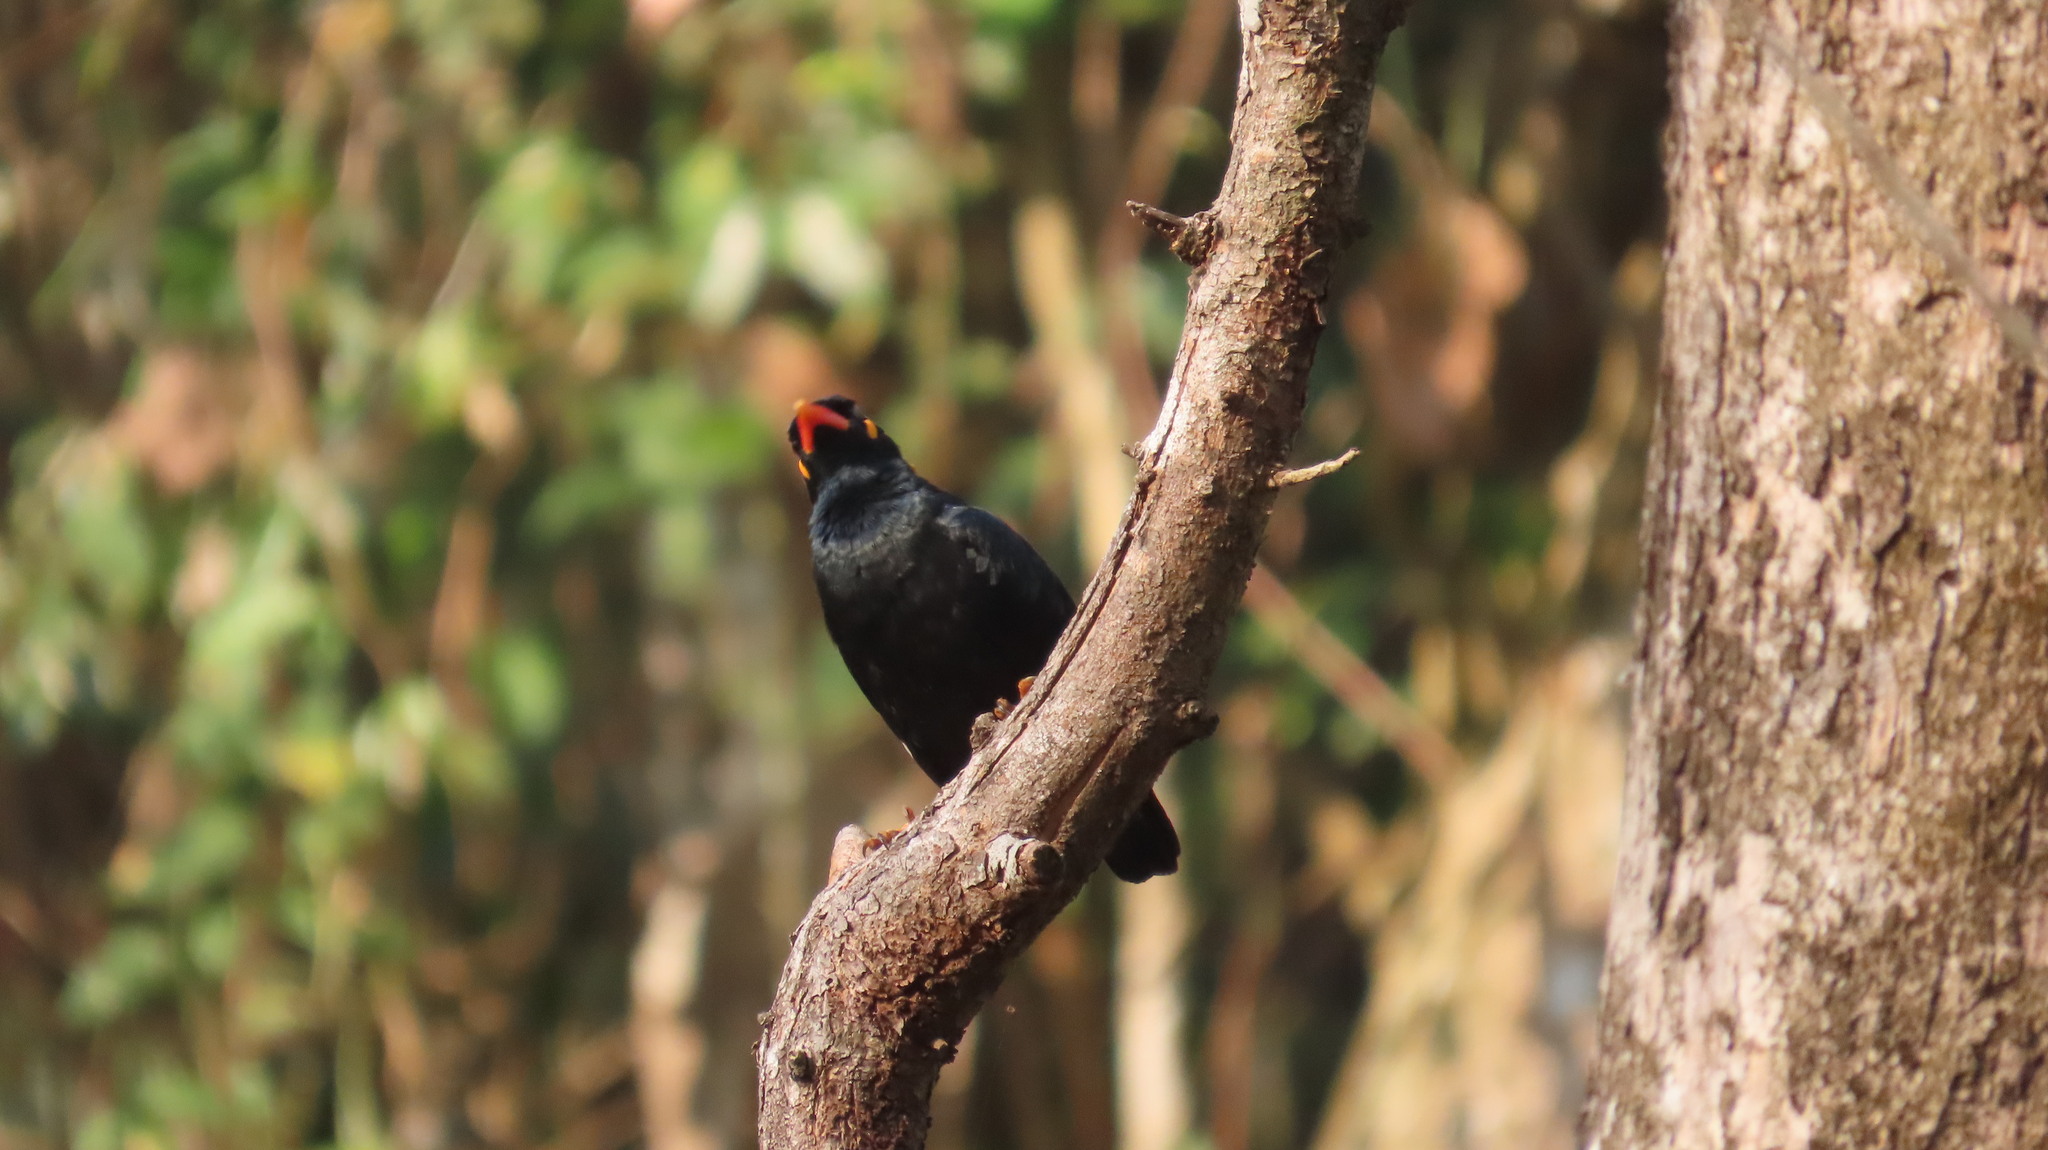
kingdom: Animalia
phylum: Chordata
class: Aves
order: Passeriformes
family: Sturnidae
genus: Gracula
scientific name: Gracula indica
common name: Southern hill myna
